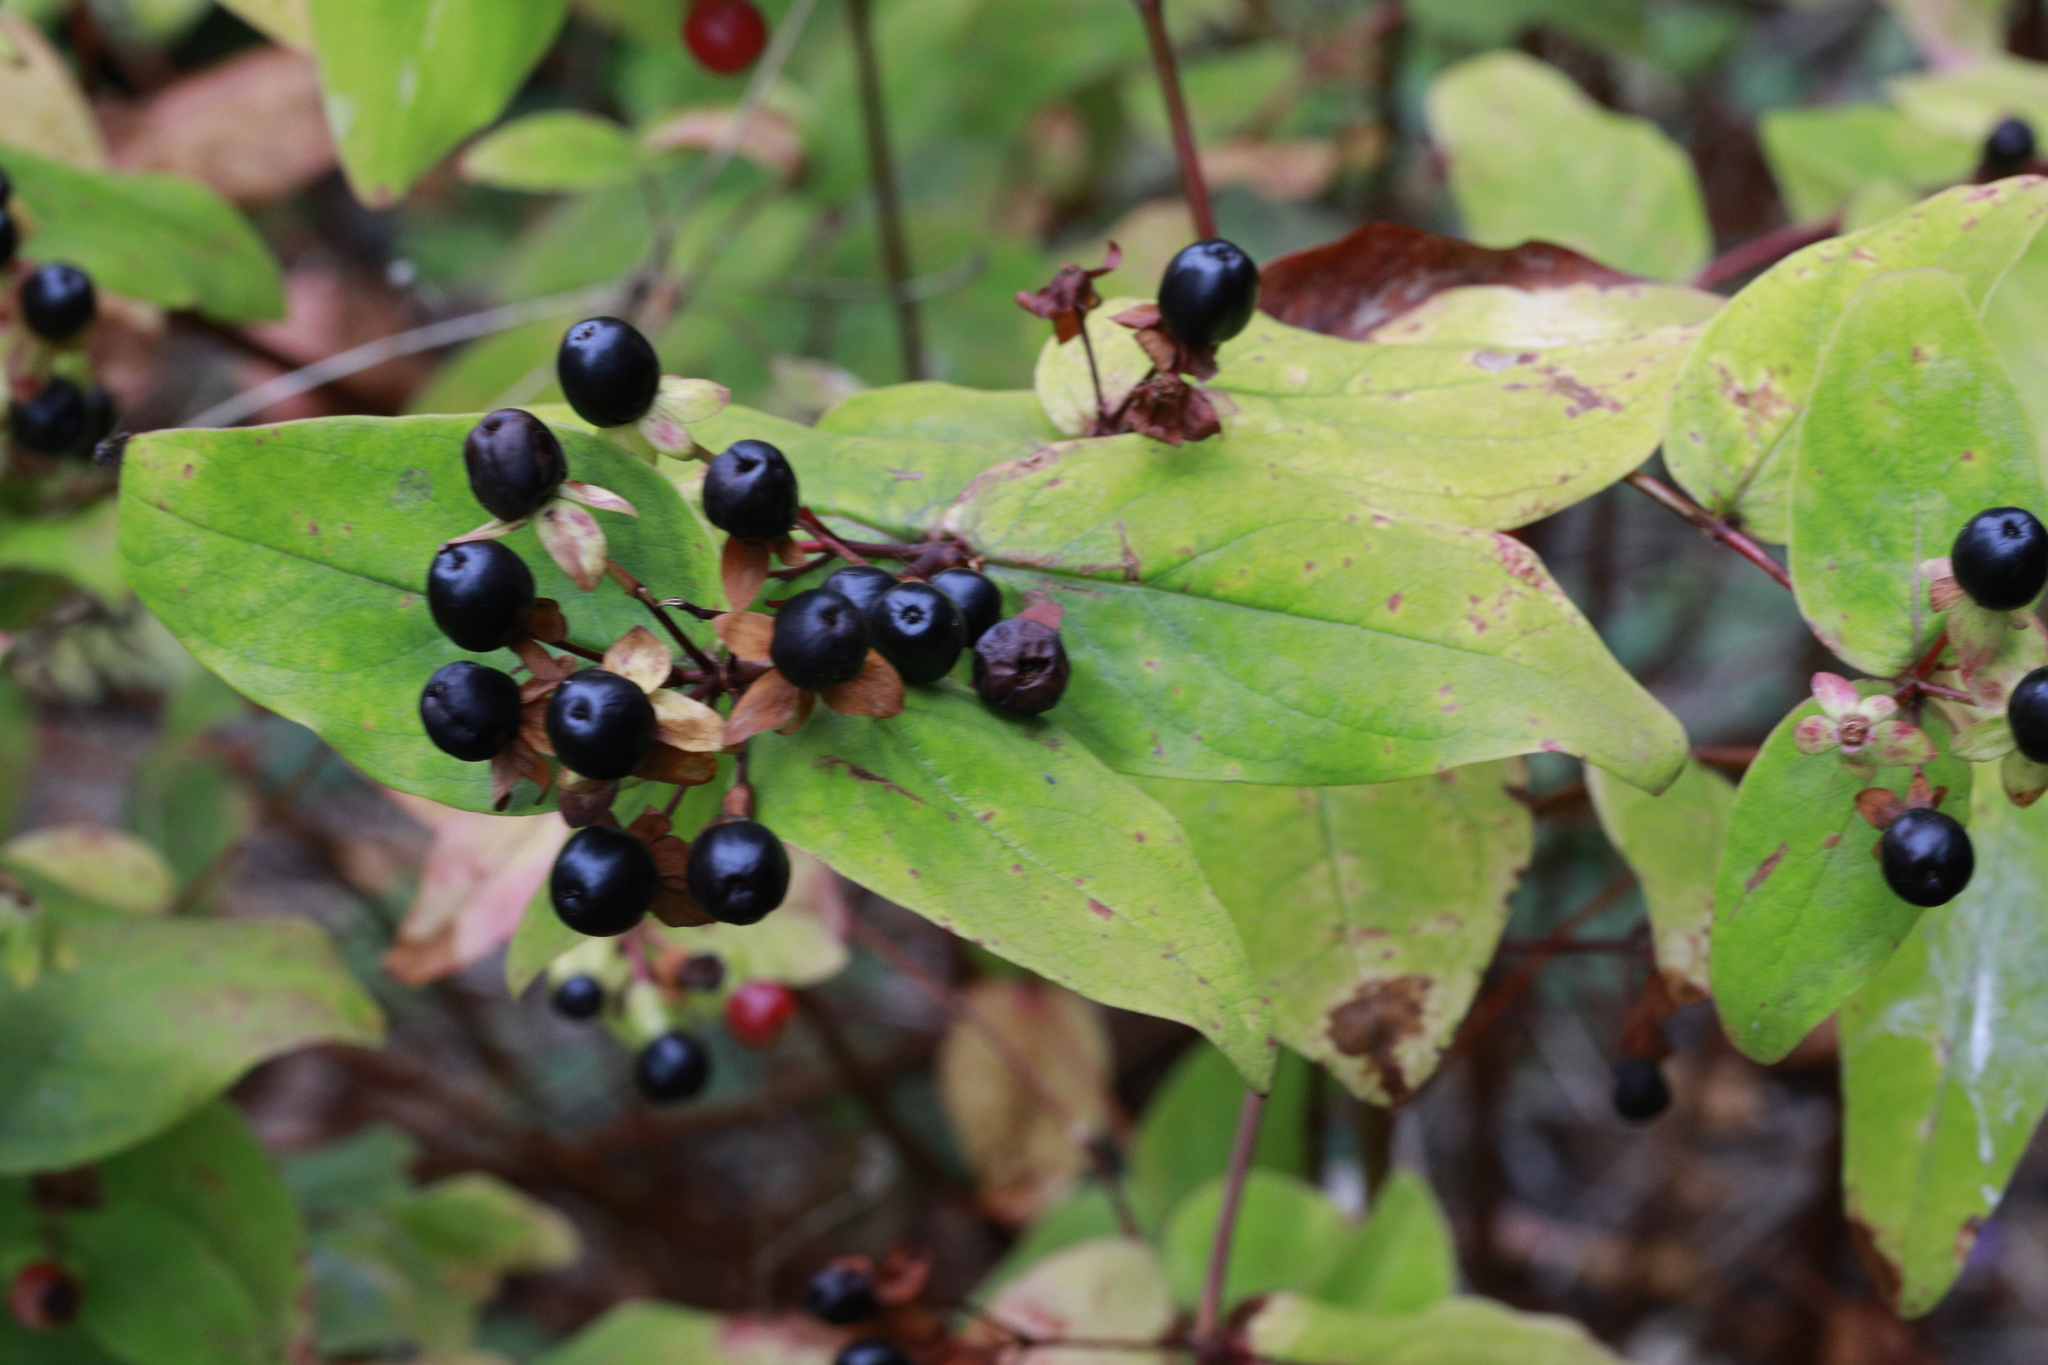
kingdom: Plantae
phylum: Tracheophyta
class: Magnoliopsida
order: Malpighiales
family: Hypericaceae
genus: Hypericum
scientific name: Hypericum androsaemum
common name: Sweet-amber
